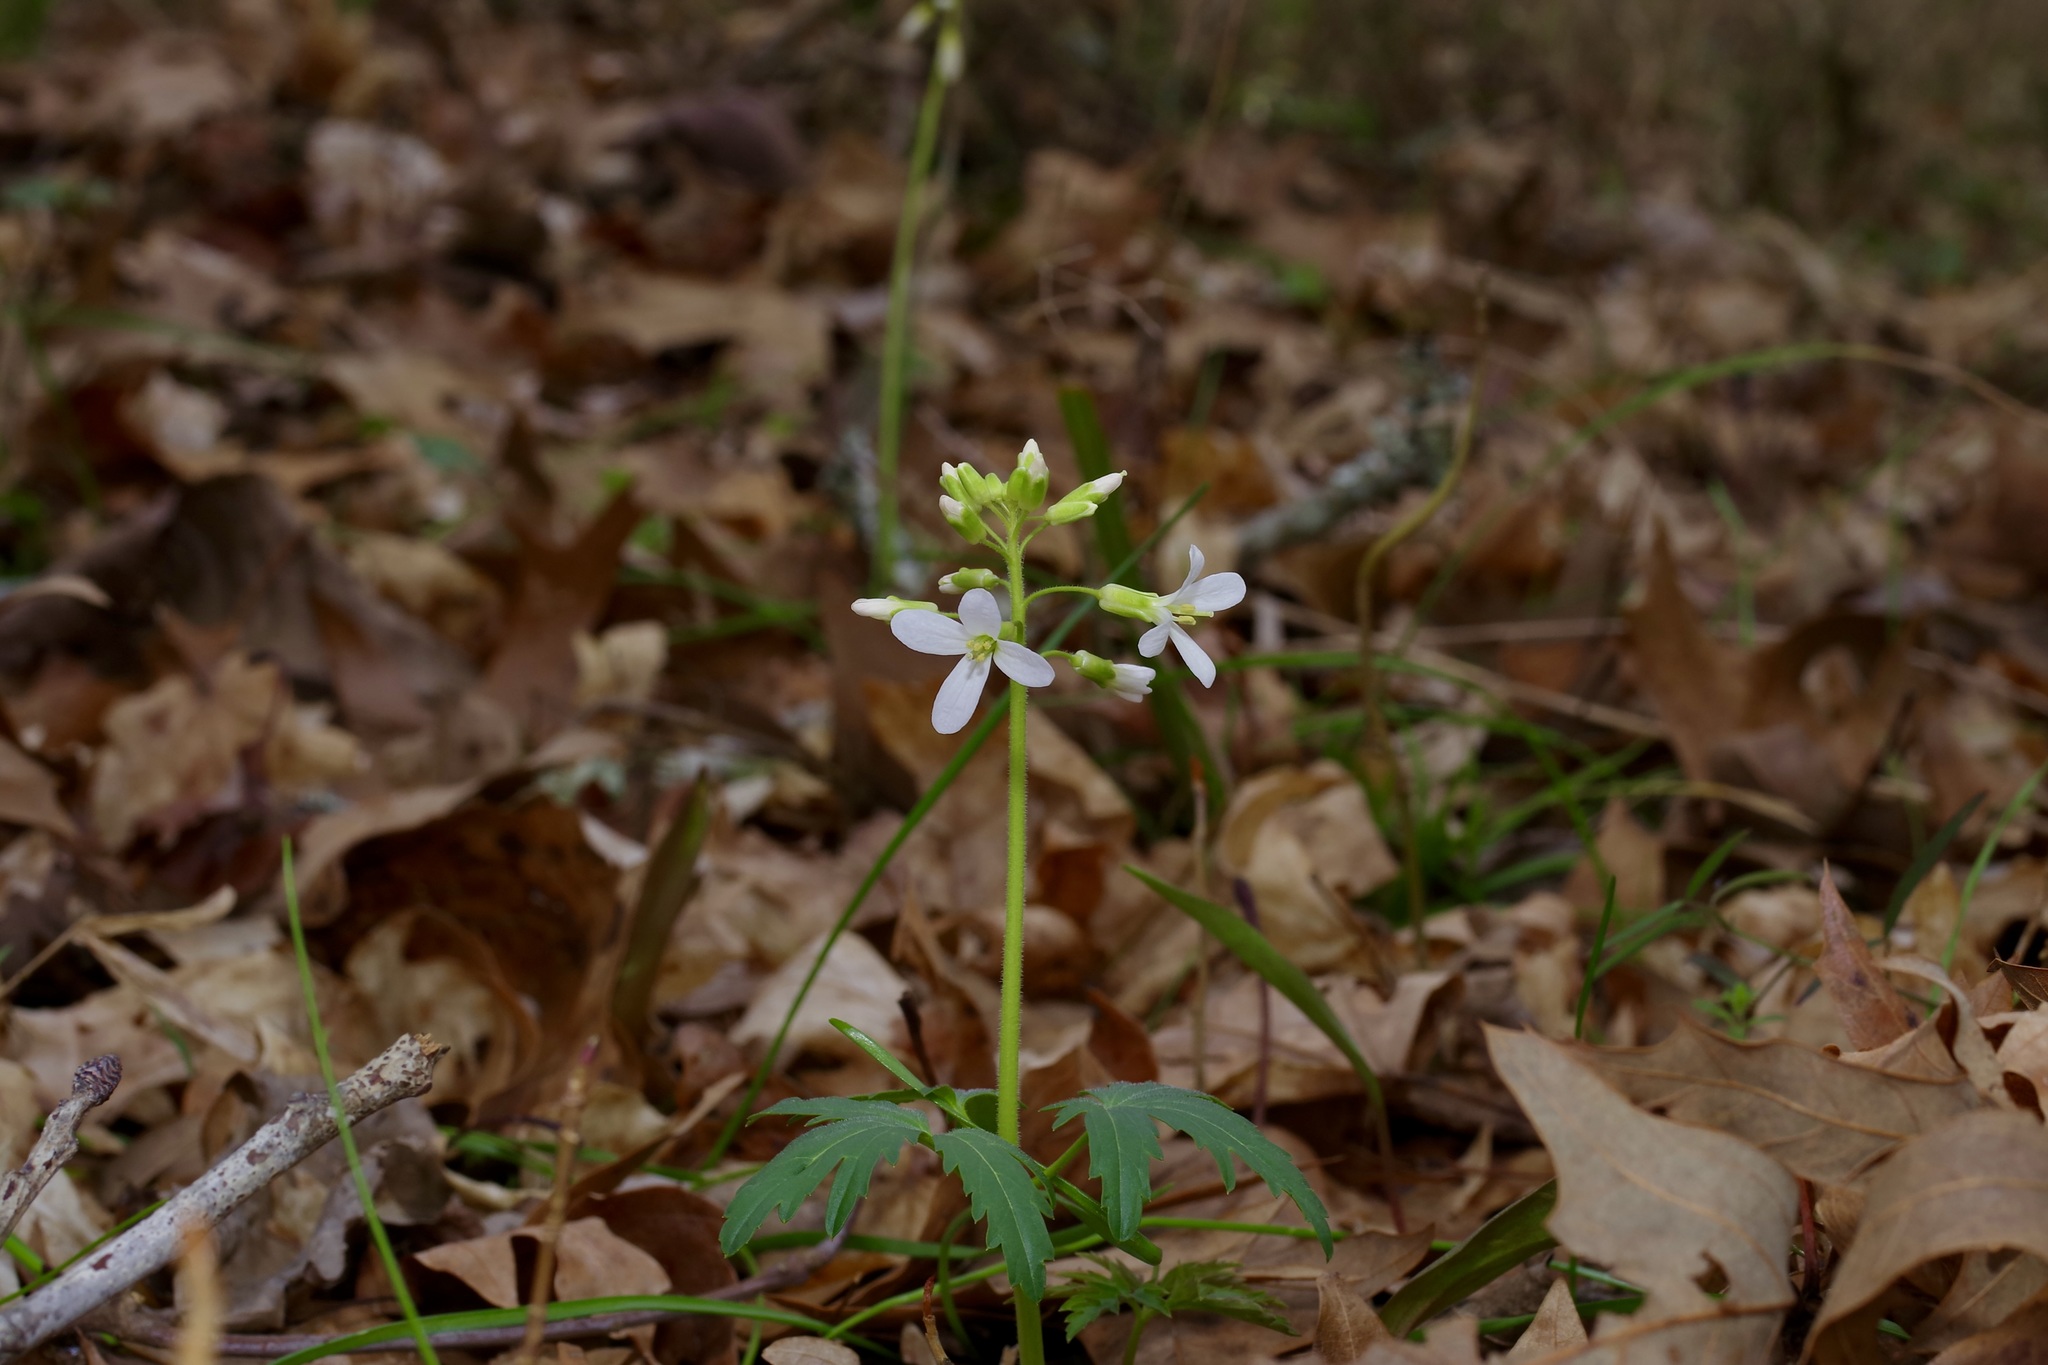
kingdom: Plantae
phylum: Tracheophyta
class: Magnoliopsida
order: Brassicales
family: Brassicaceae
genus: Cardamine
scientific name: Cardamine concatenata
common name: Cut-leaf toothcup
